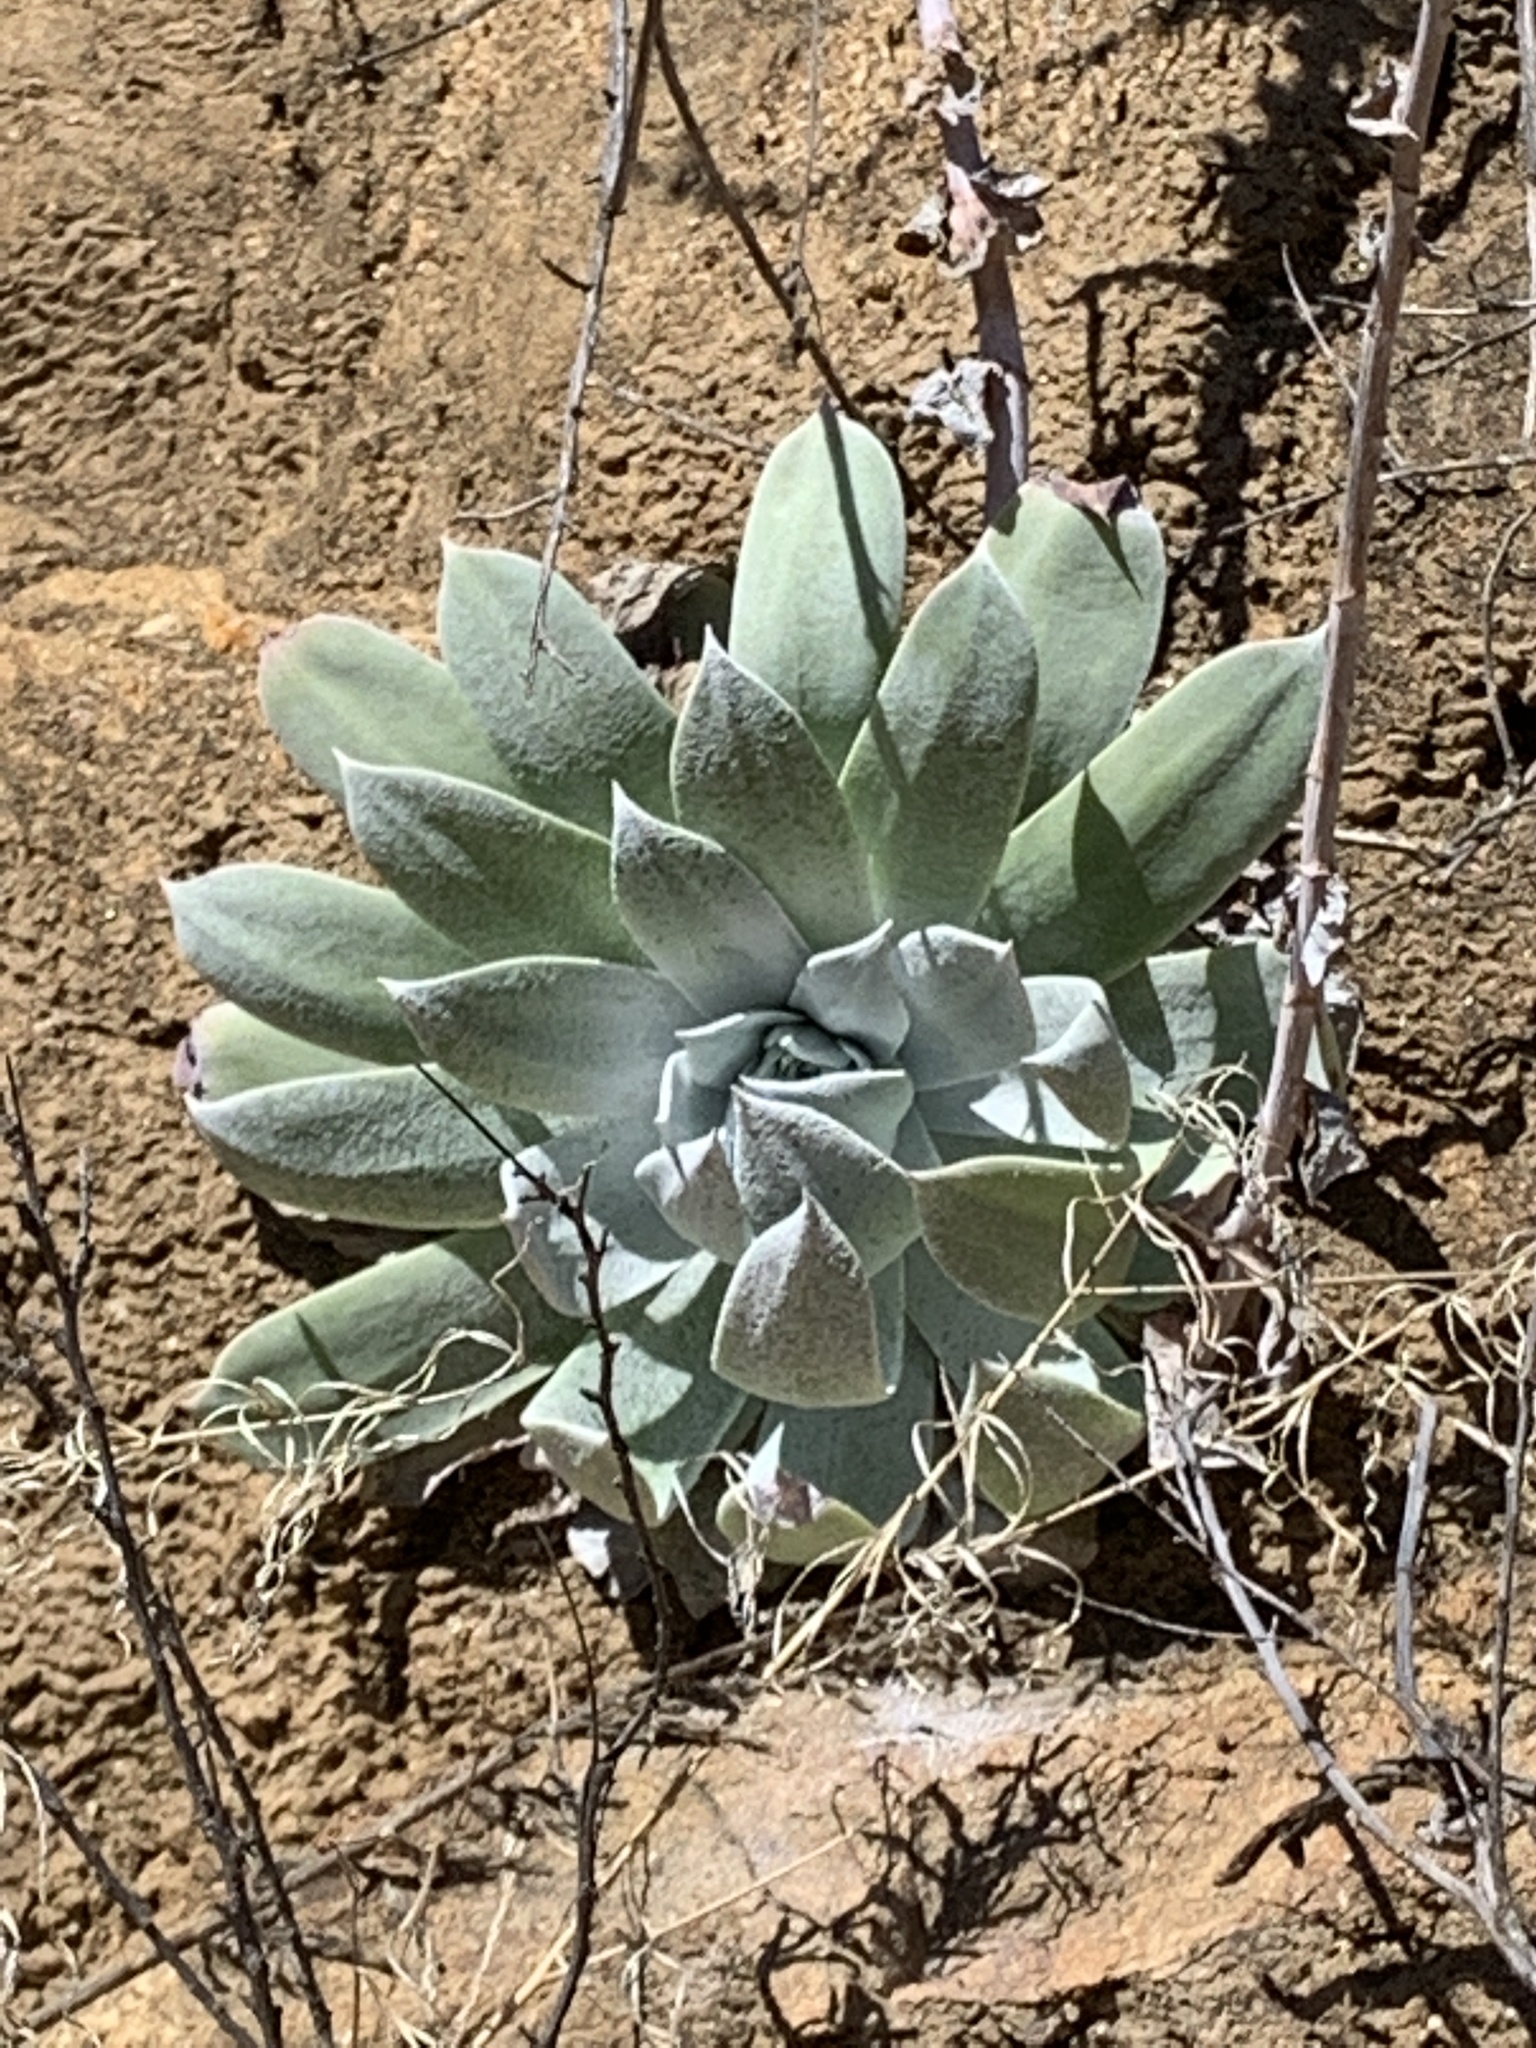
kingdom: Plantae
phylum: Tracheophyta
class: Magnoliopsida
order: Saxifragales
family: Crassulaceae
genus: Dudleya
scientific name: Dudleya pulverulenta
